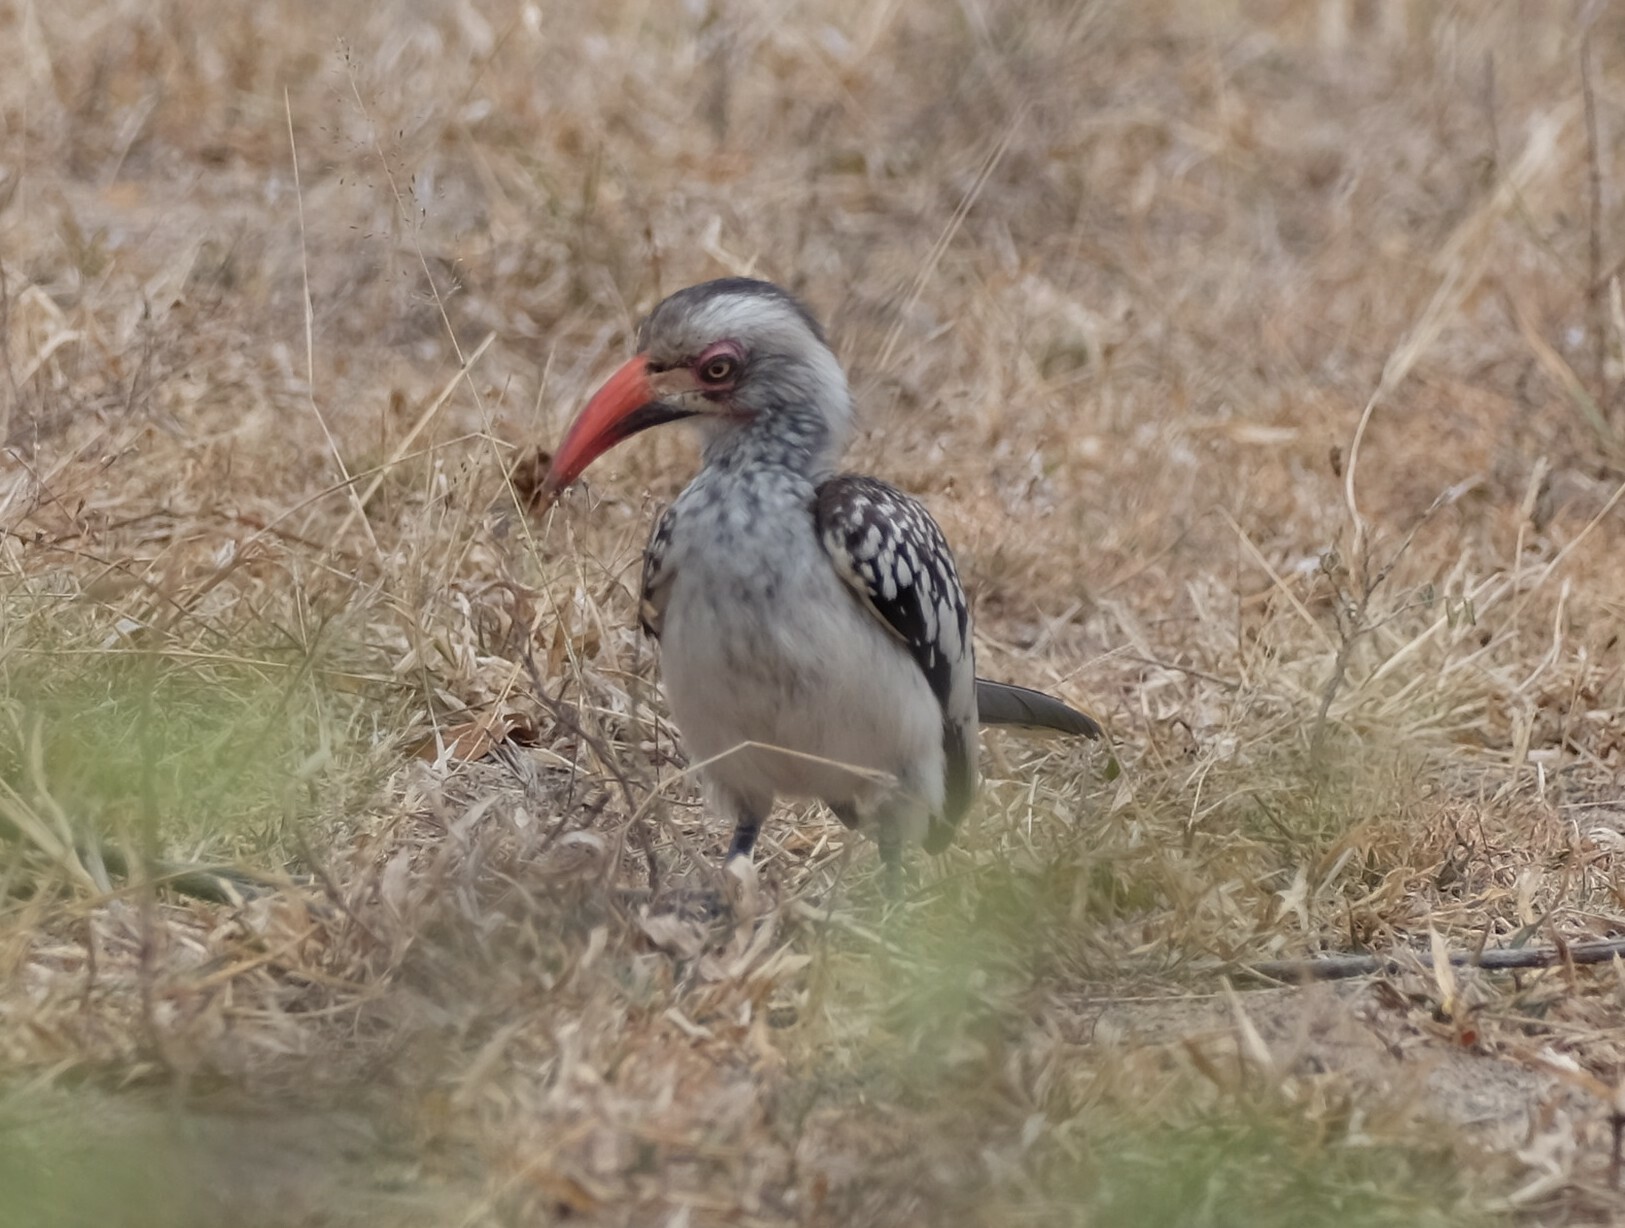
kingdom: Animalia
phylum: Chordata
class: Aves
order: Bucerotiformes
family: Bucerotidae
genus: Tockus
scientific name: Tockus rufirostris
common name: Southern red-billed hornbill
